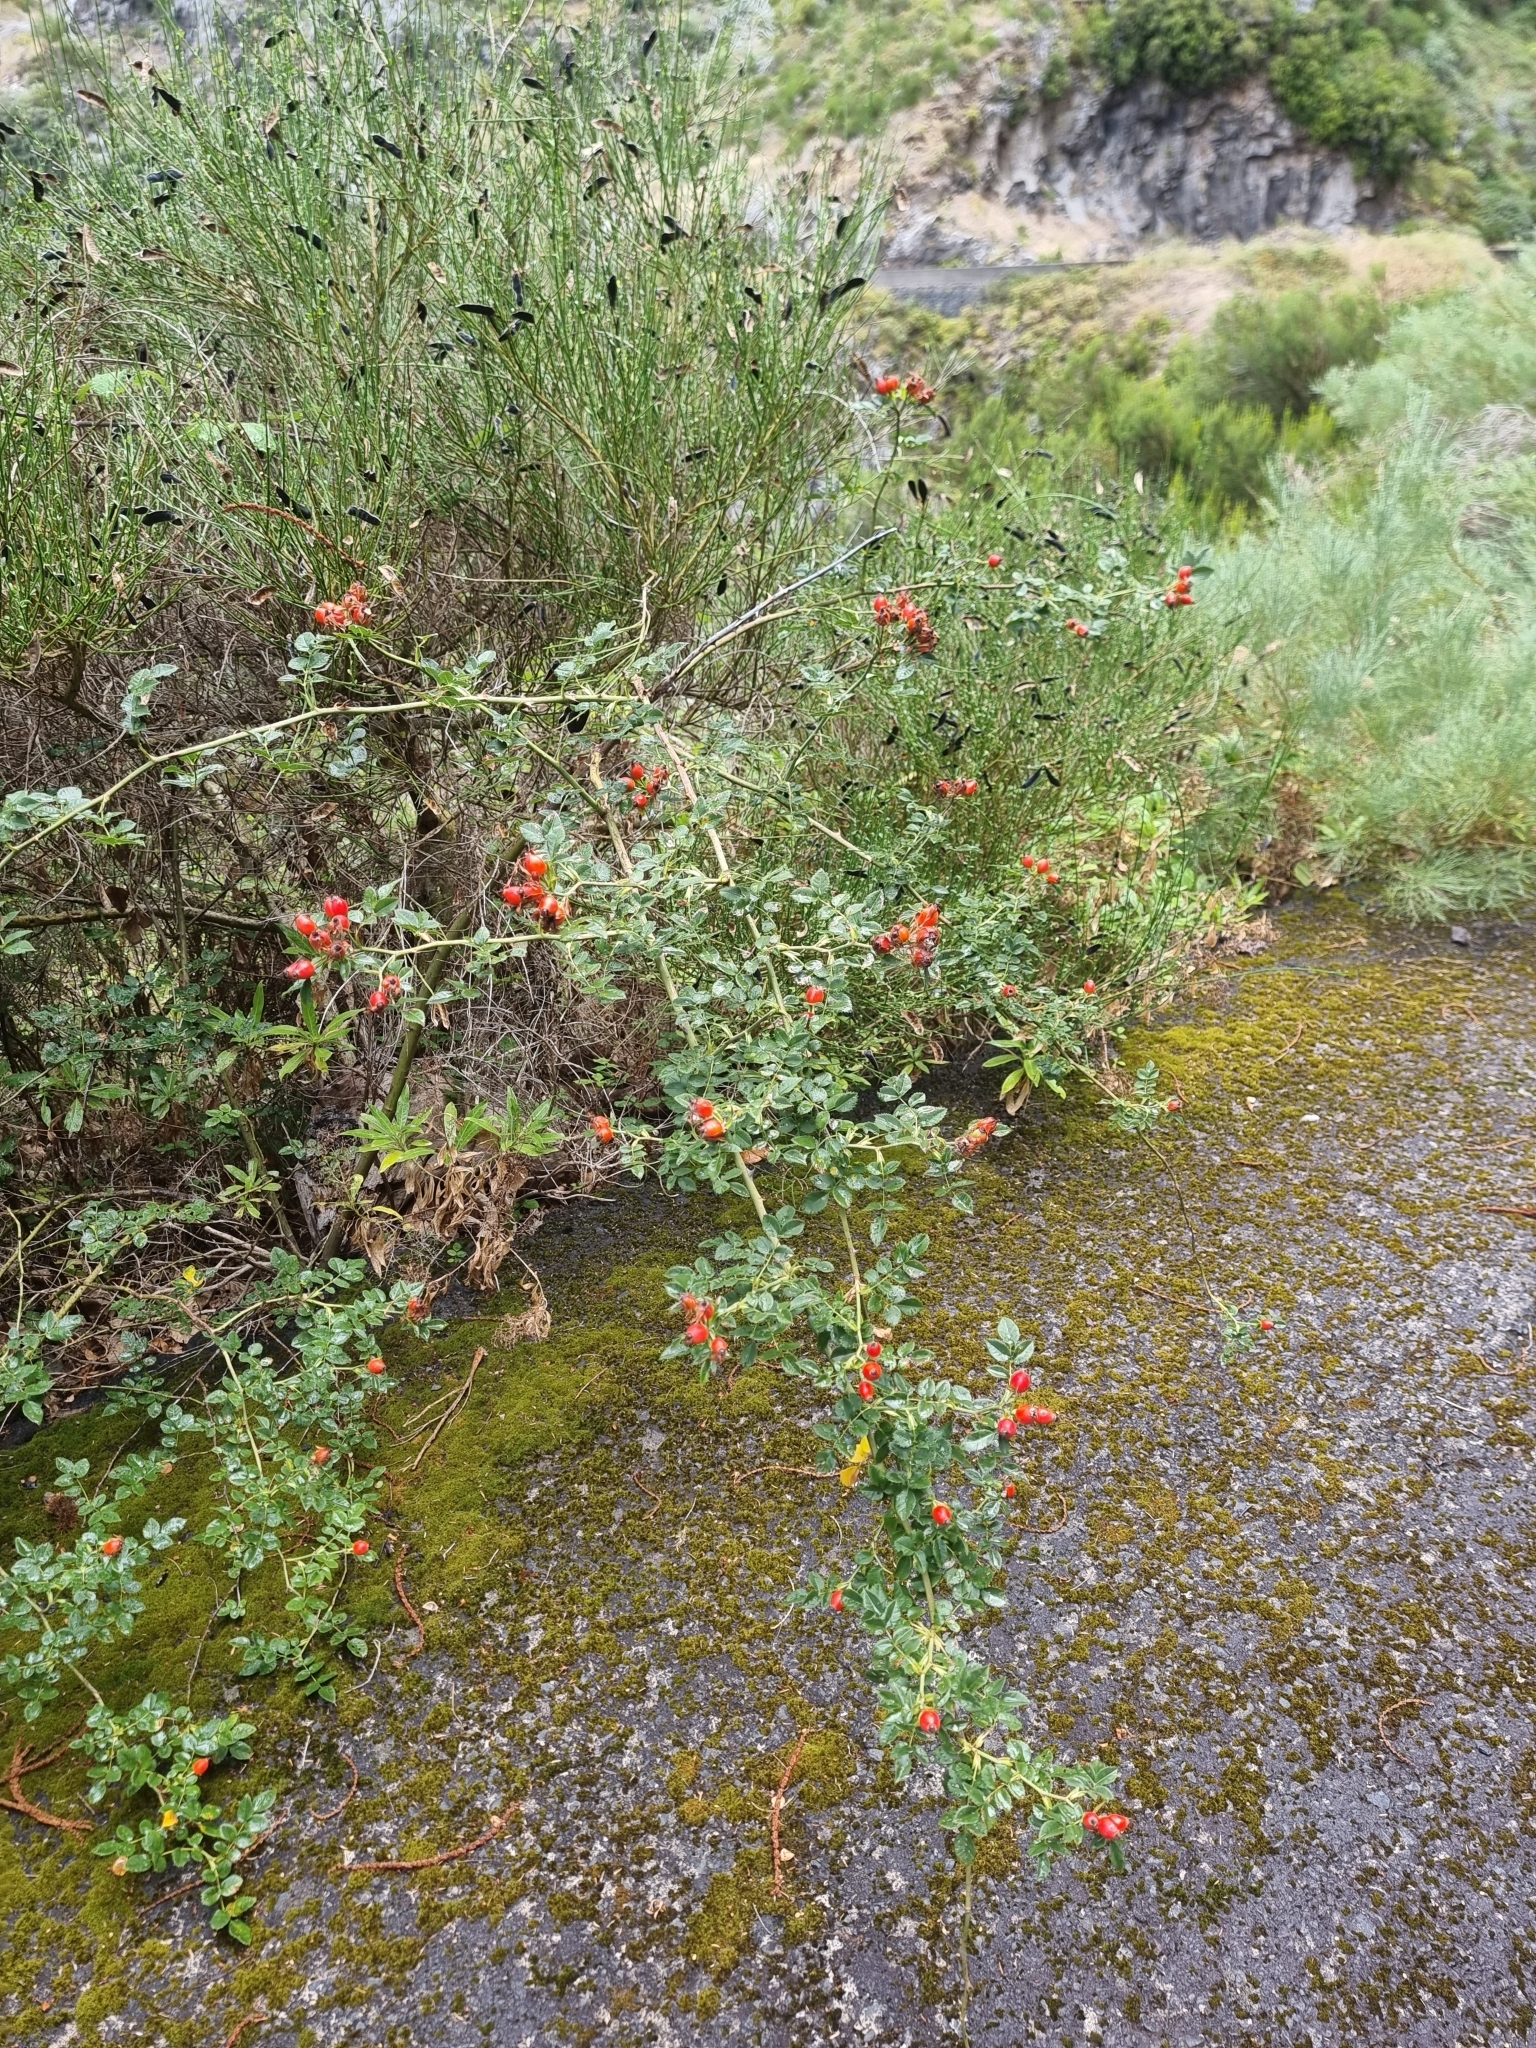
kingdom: Plantae
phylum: Tracheophyta
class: Magnoliopsida
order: Rosales
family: Rosaceae
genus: Rosa
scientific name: Rosa canina
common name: Dog rose
